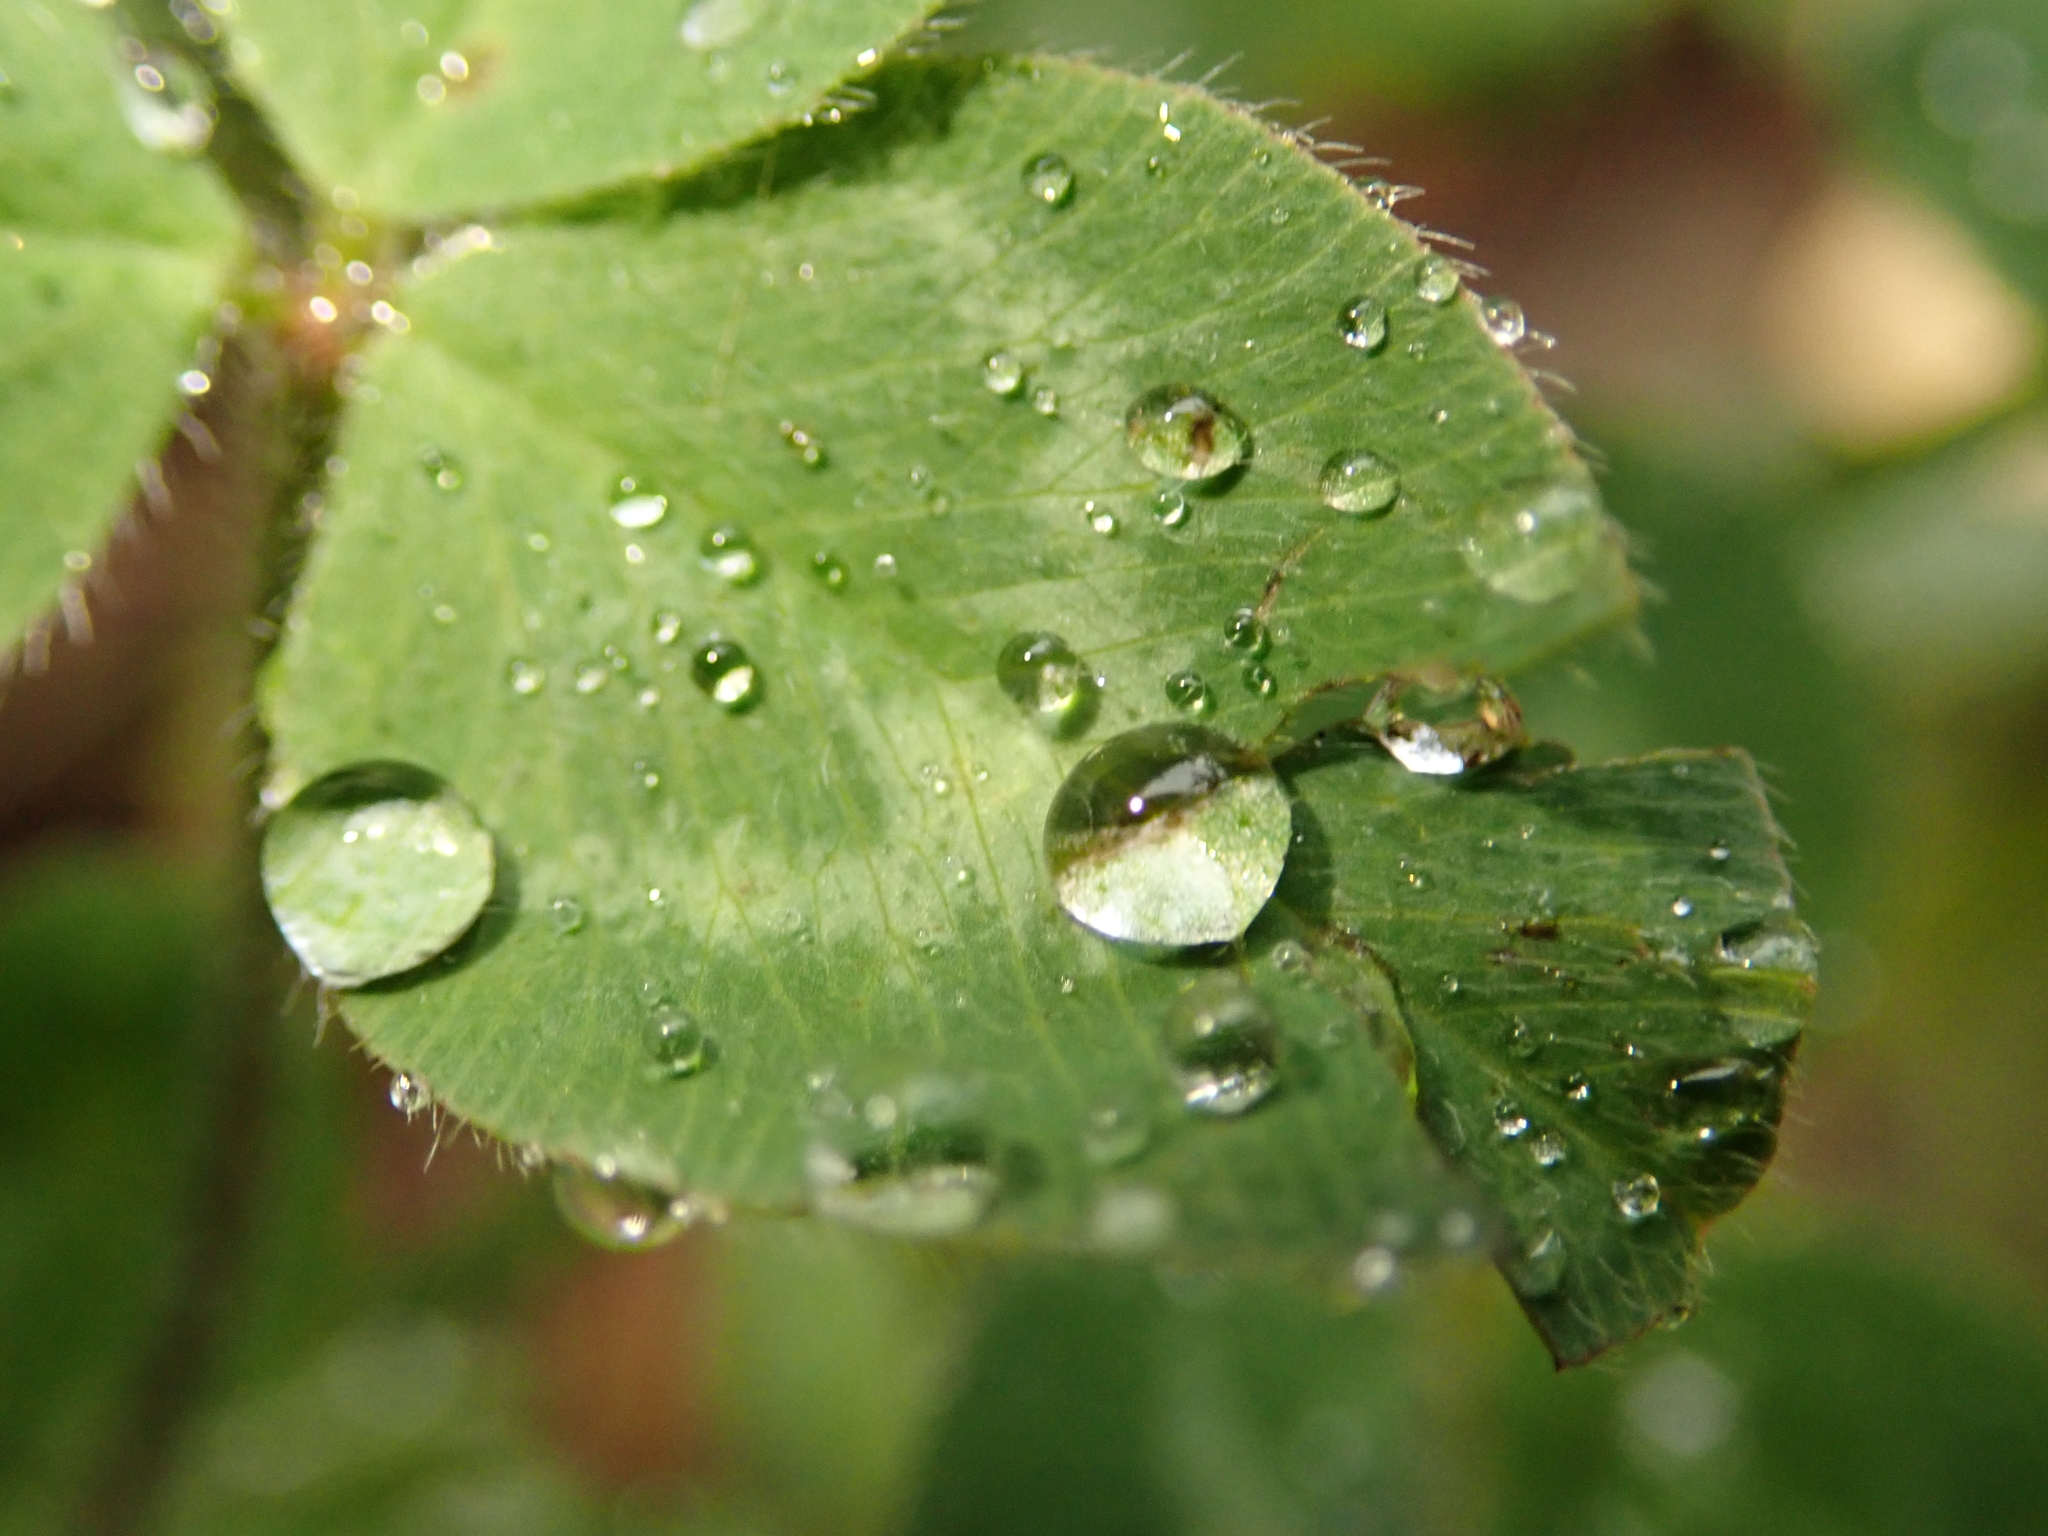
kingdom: Plantae
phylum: Tracheophyta
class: Magnoliopsida
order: Fabales
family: Fabaceae
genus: Trifolium
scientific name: Trifolium pratense
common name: Red clover
